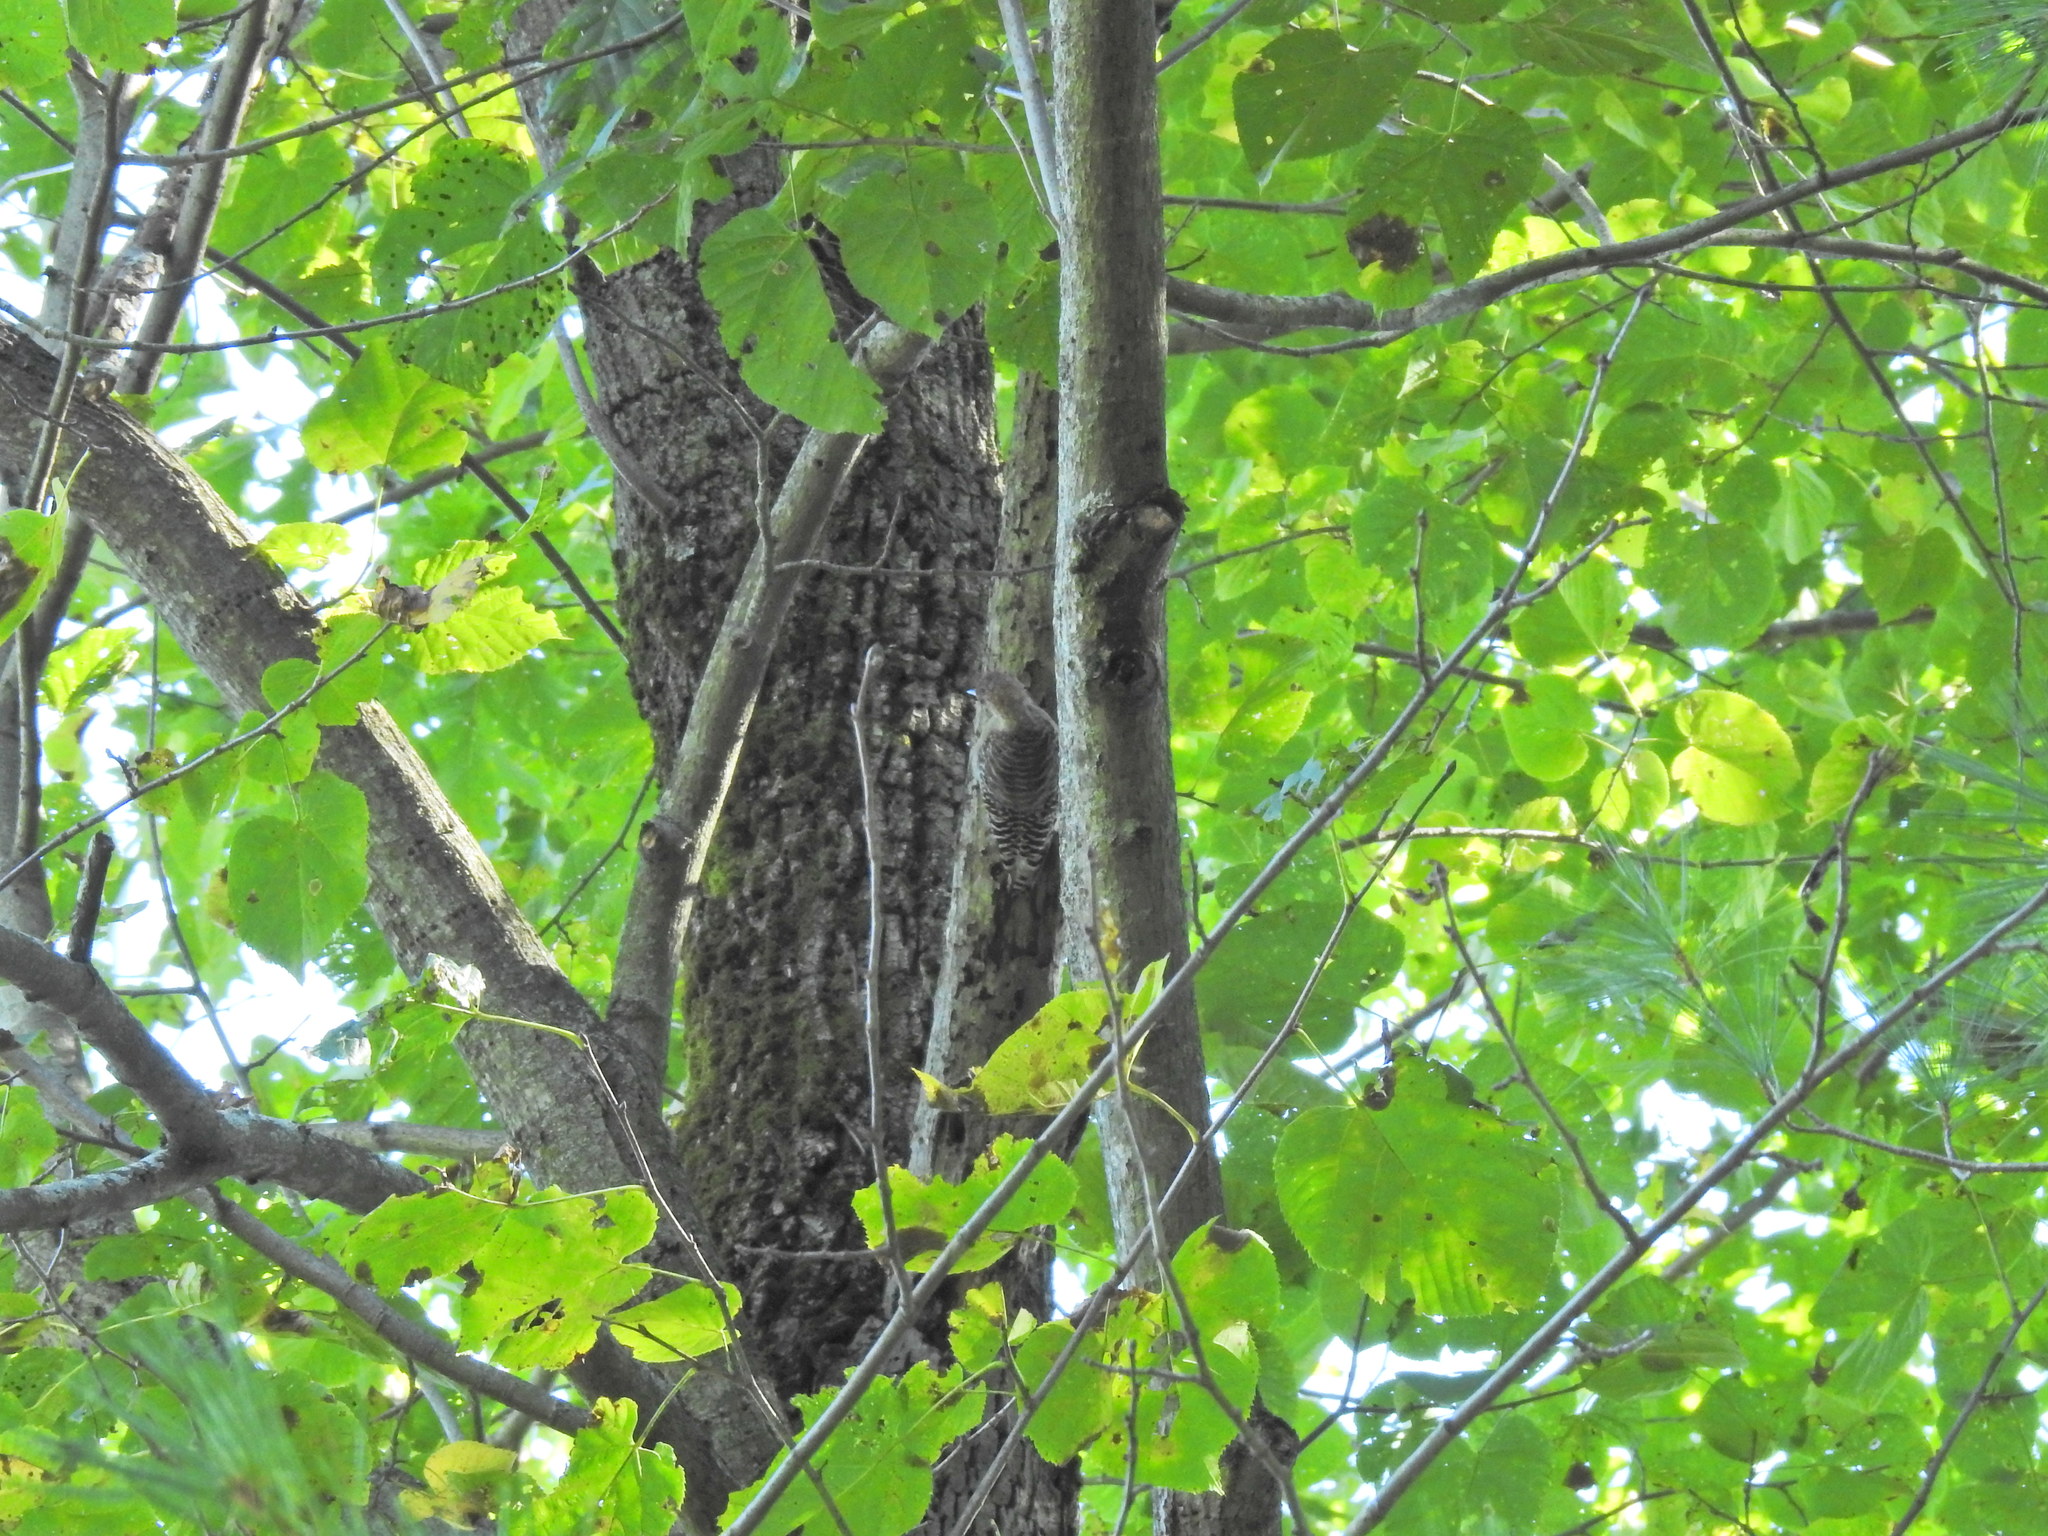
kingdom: Animalia
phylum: Chordata
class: Aves
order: Piciformes
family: Picidae
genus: Melanerpes
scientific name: Melanerpes carolinus
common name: Red-bellied woodpecker
